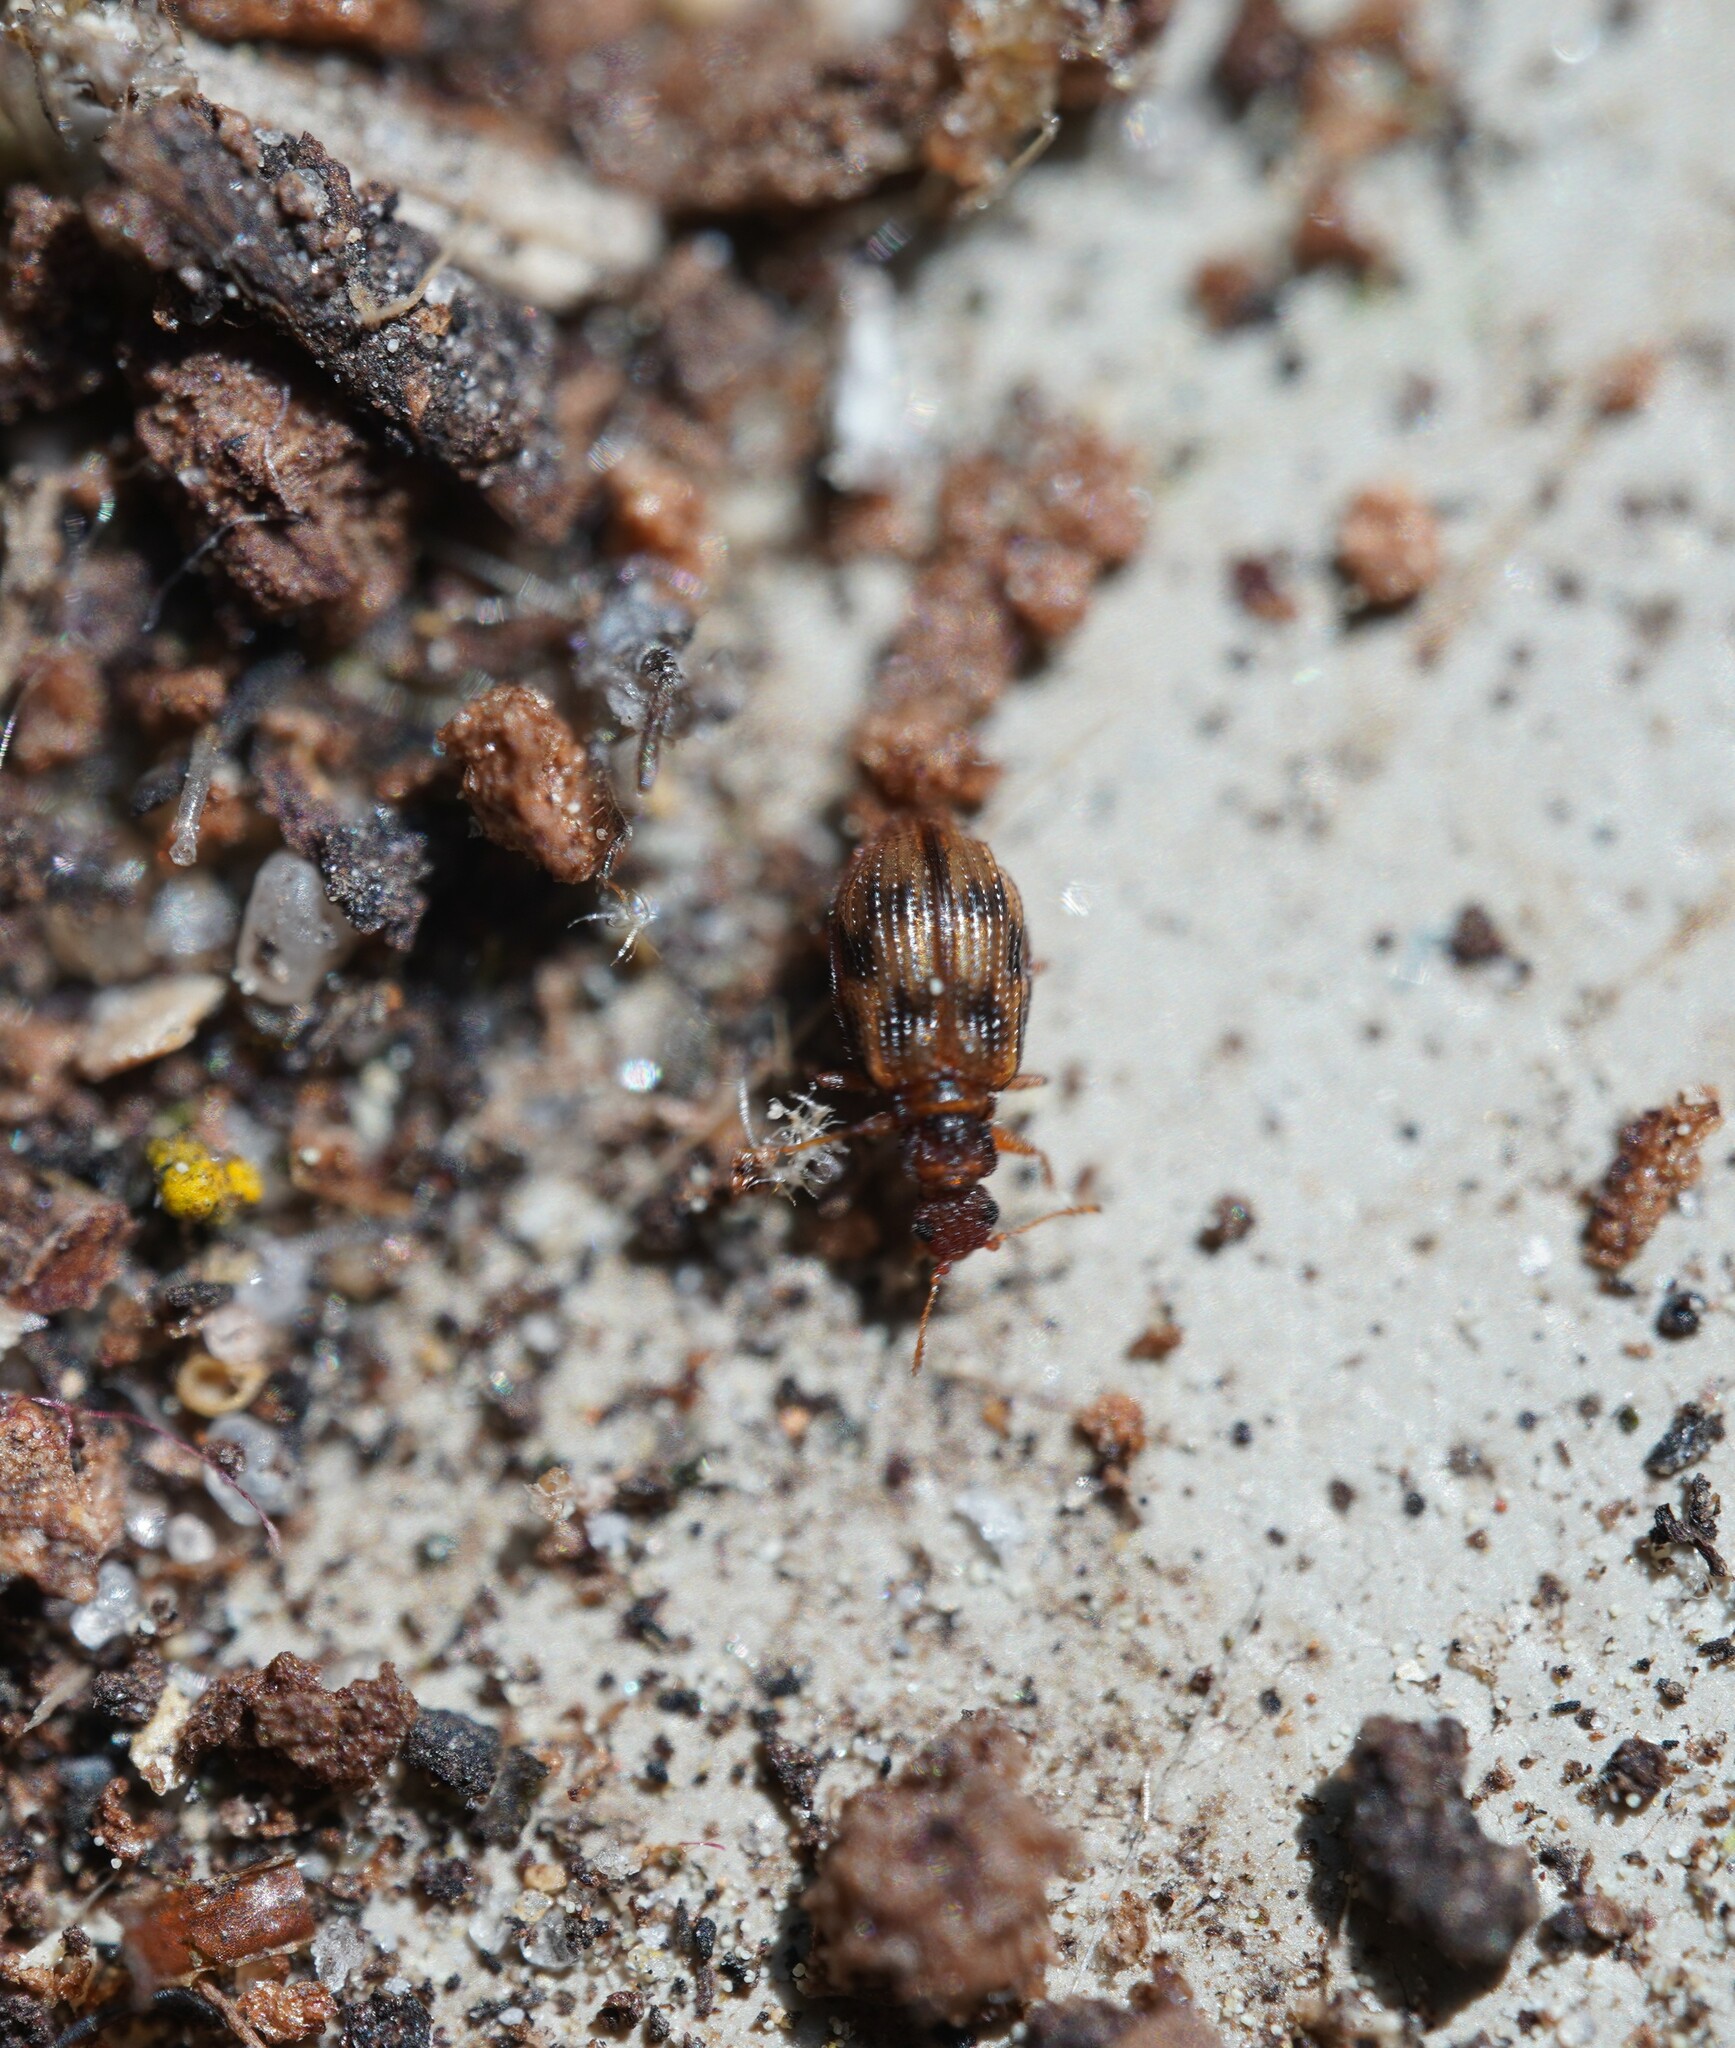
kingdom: Animalia
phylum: Arthropoda
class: Insecta
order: Coleoptera
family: Latridiidae
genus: Cartodere
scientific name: Cartodere bifasciata
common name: Plaster beetle
